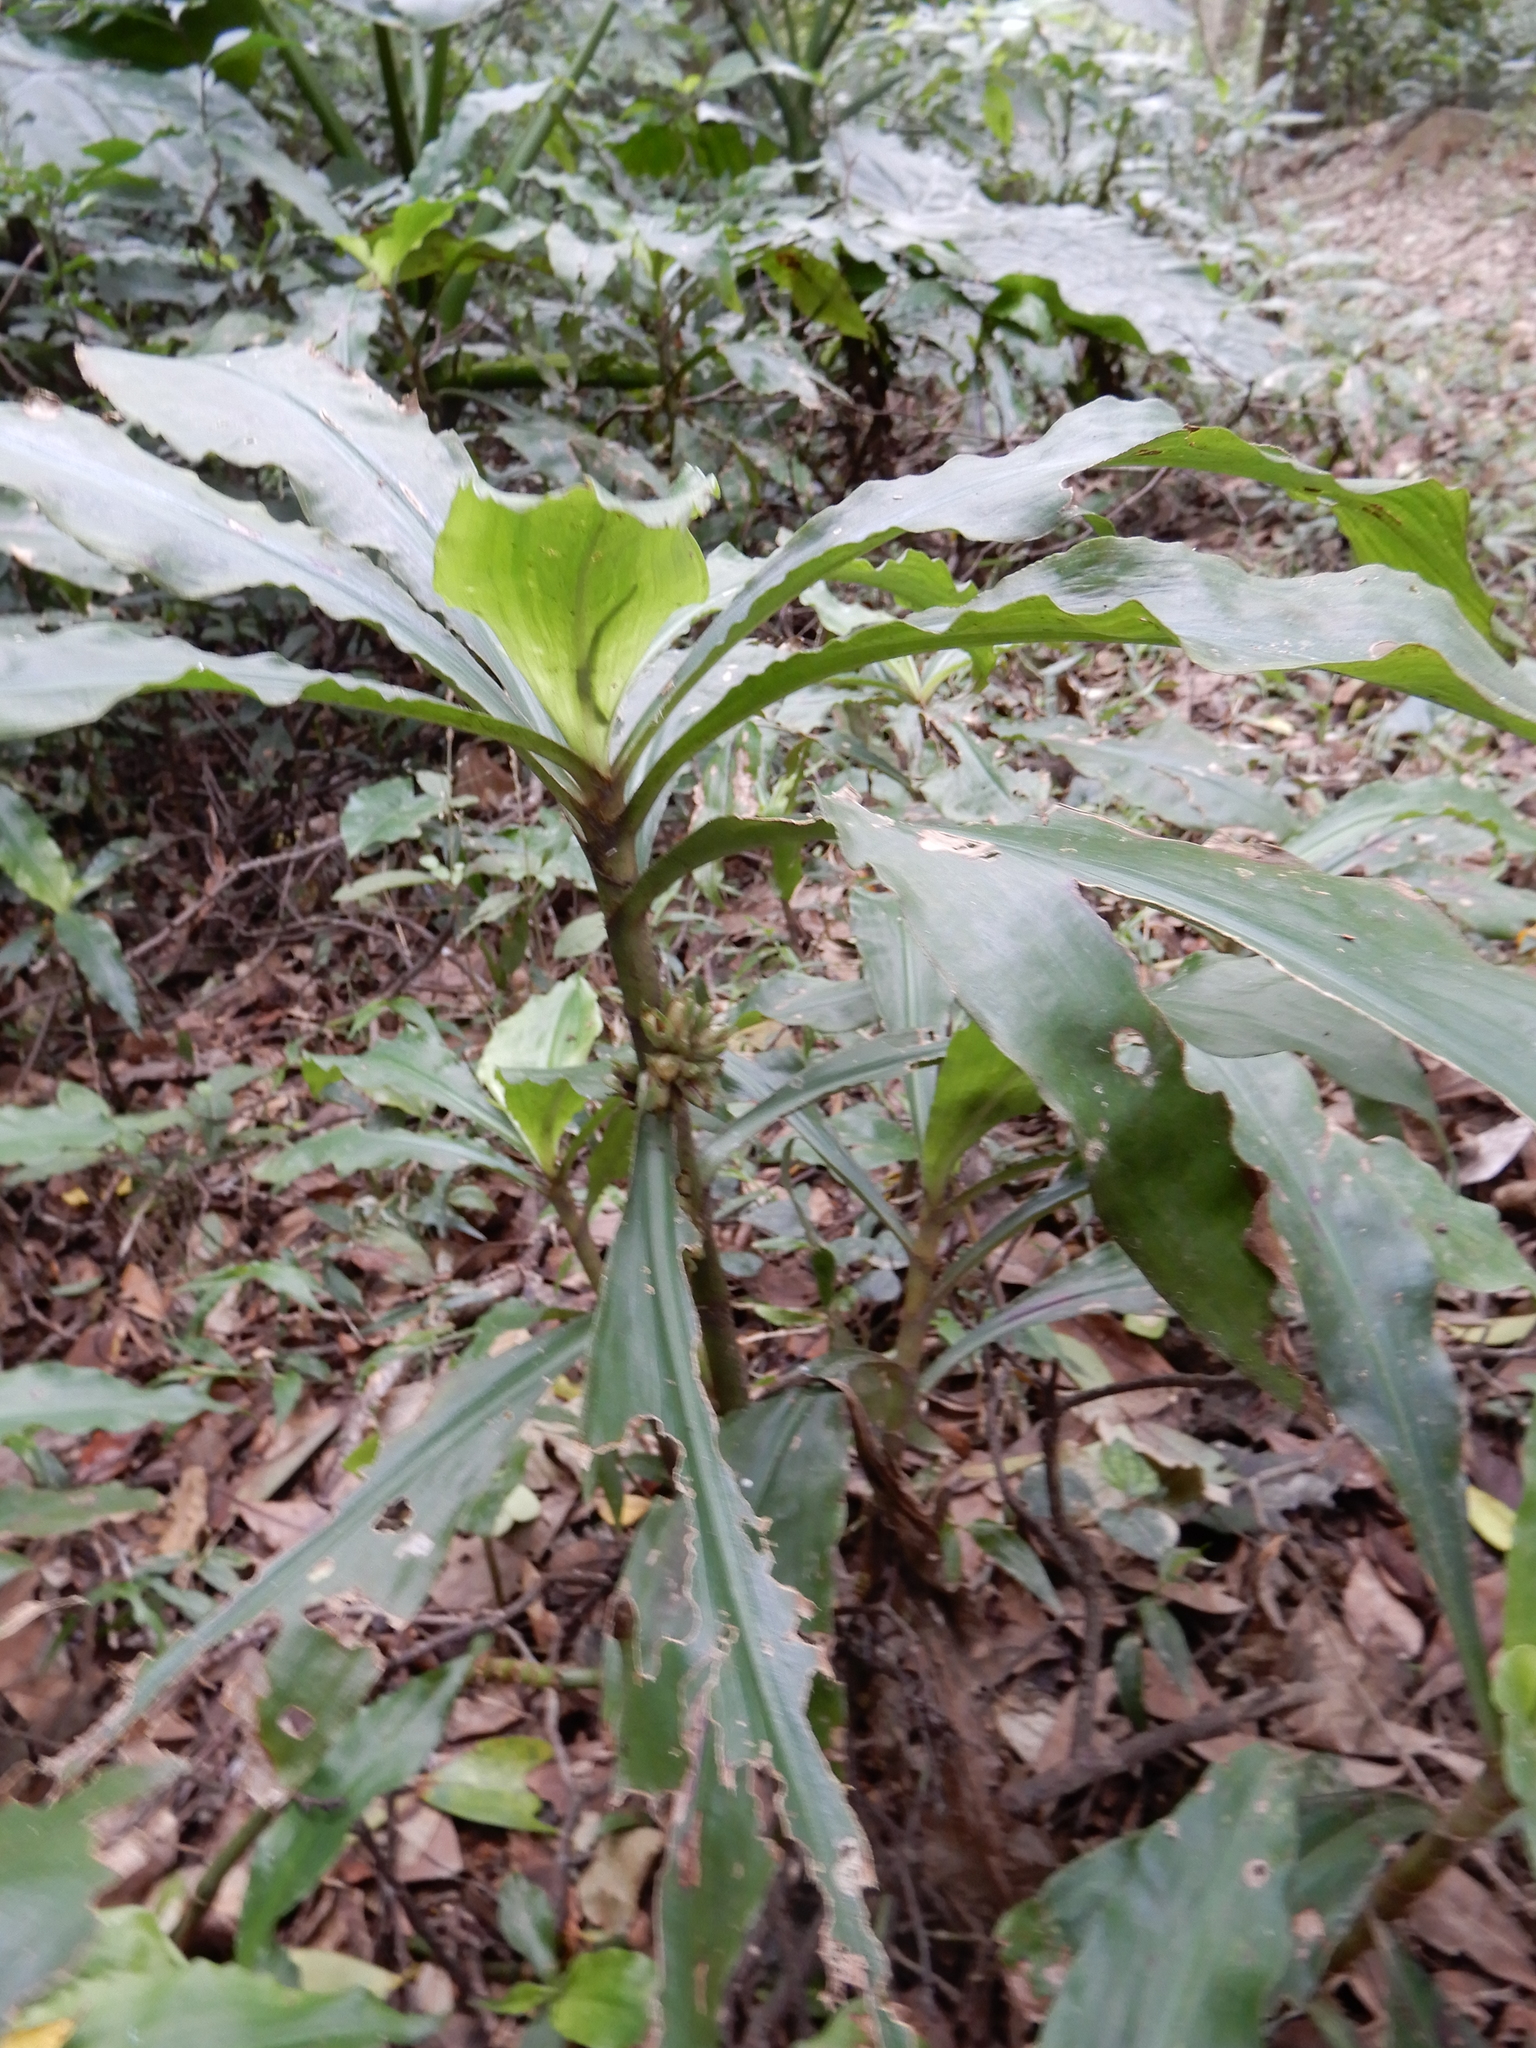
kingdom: Plantae
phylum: Tracheophyta
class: Liliopsida
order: Commelinales
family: Commelinaceae
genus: Amischotolype
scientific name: Amischotolype glabrata
